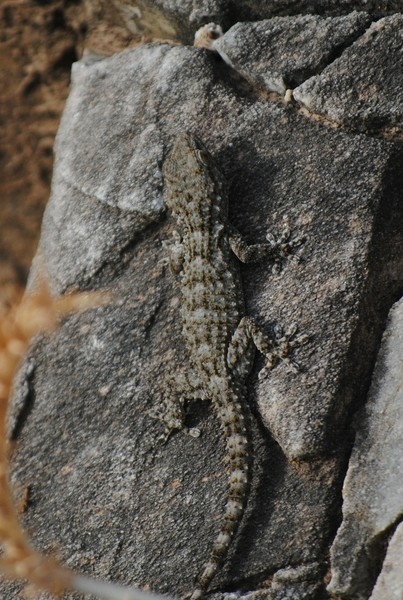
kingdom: Animalia
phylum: Chordata
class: Squamata
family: Phyllodactylidae
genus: Tarentola
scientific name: Tarentola mauritanica
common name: Moorish gecko
